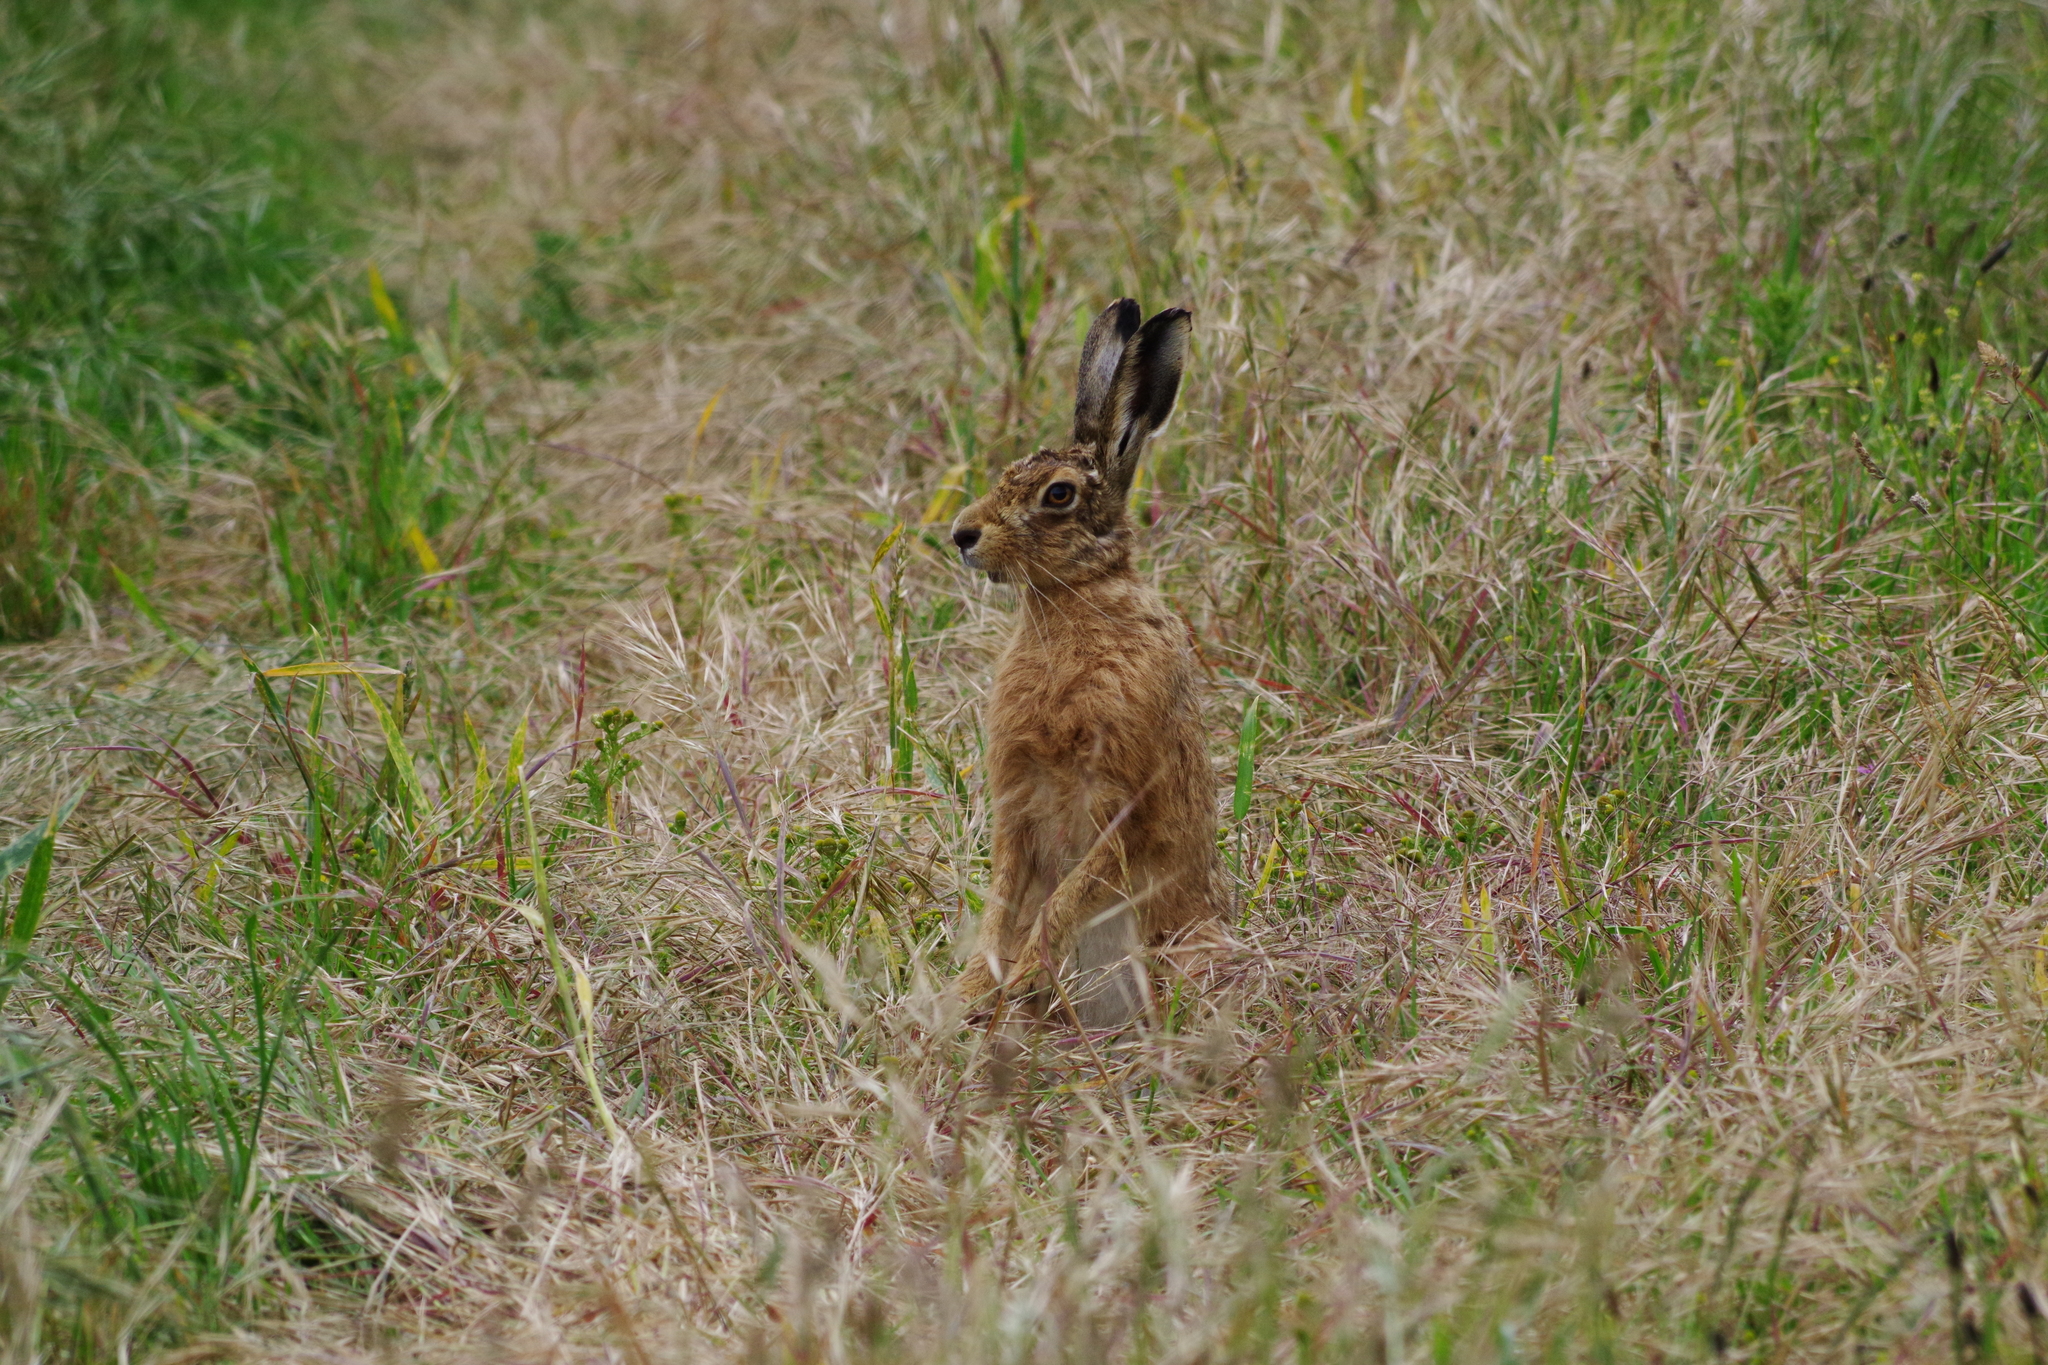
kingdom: Animalia
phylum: Chordata
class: Mammalia
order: Lagomorpha
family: Leporidae
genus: Lepus
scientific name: Lepus europaeus
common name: European hare
